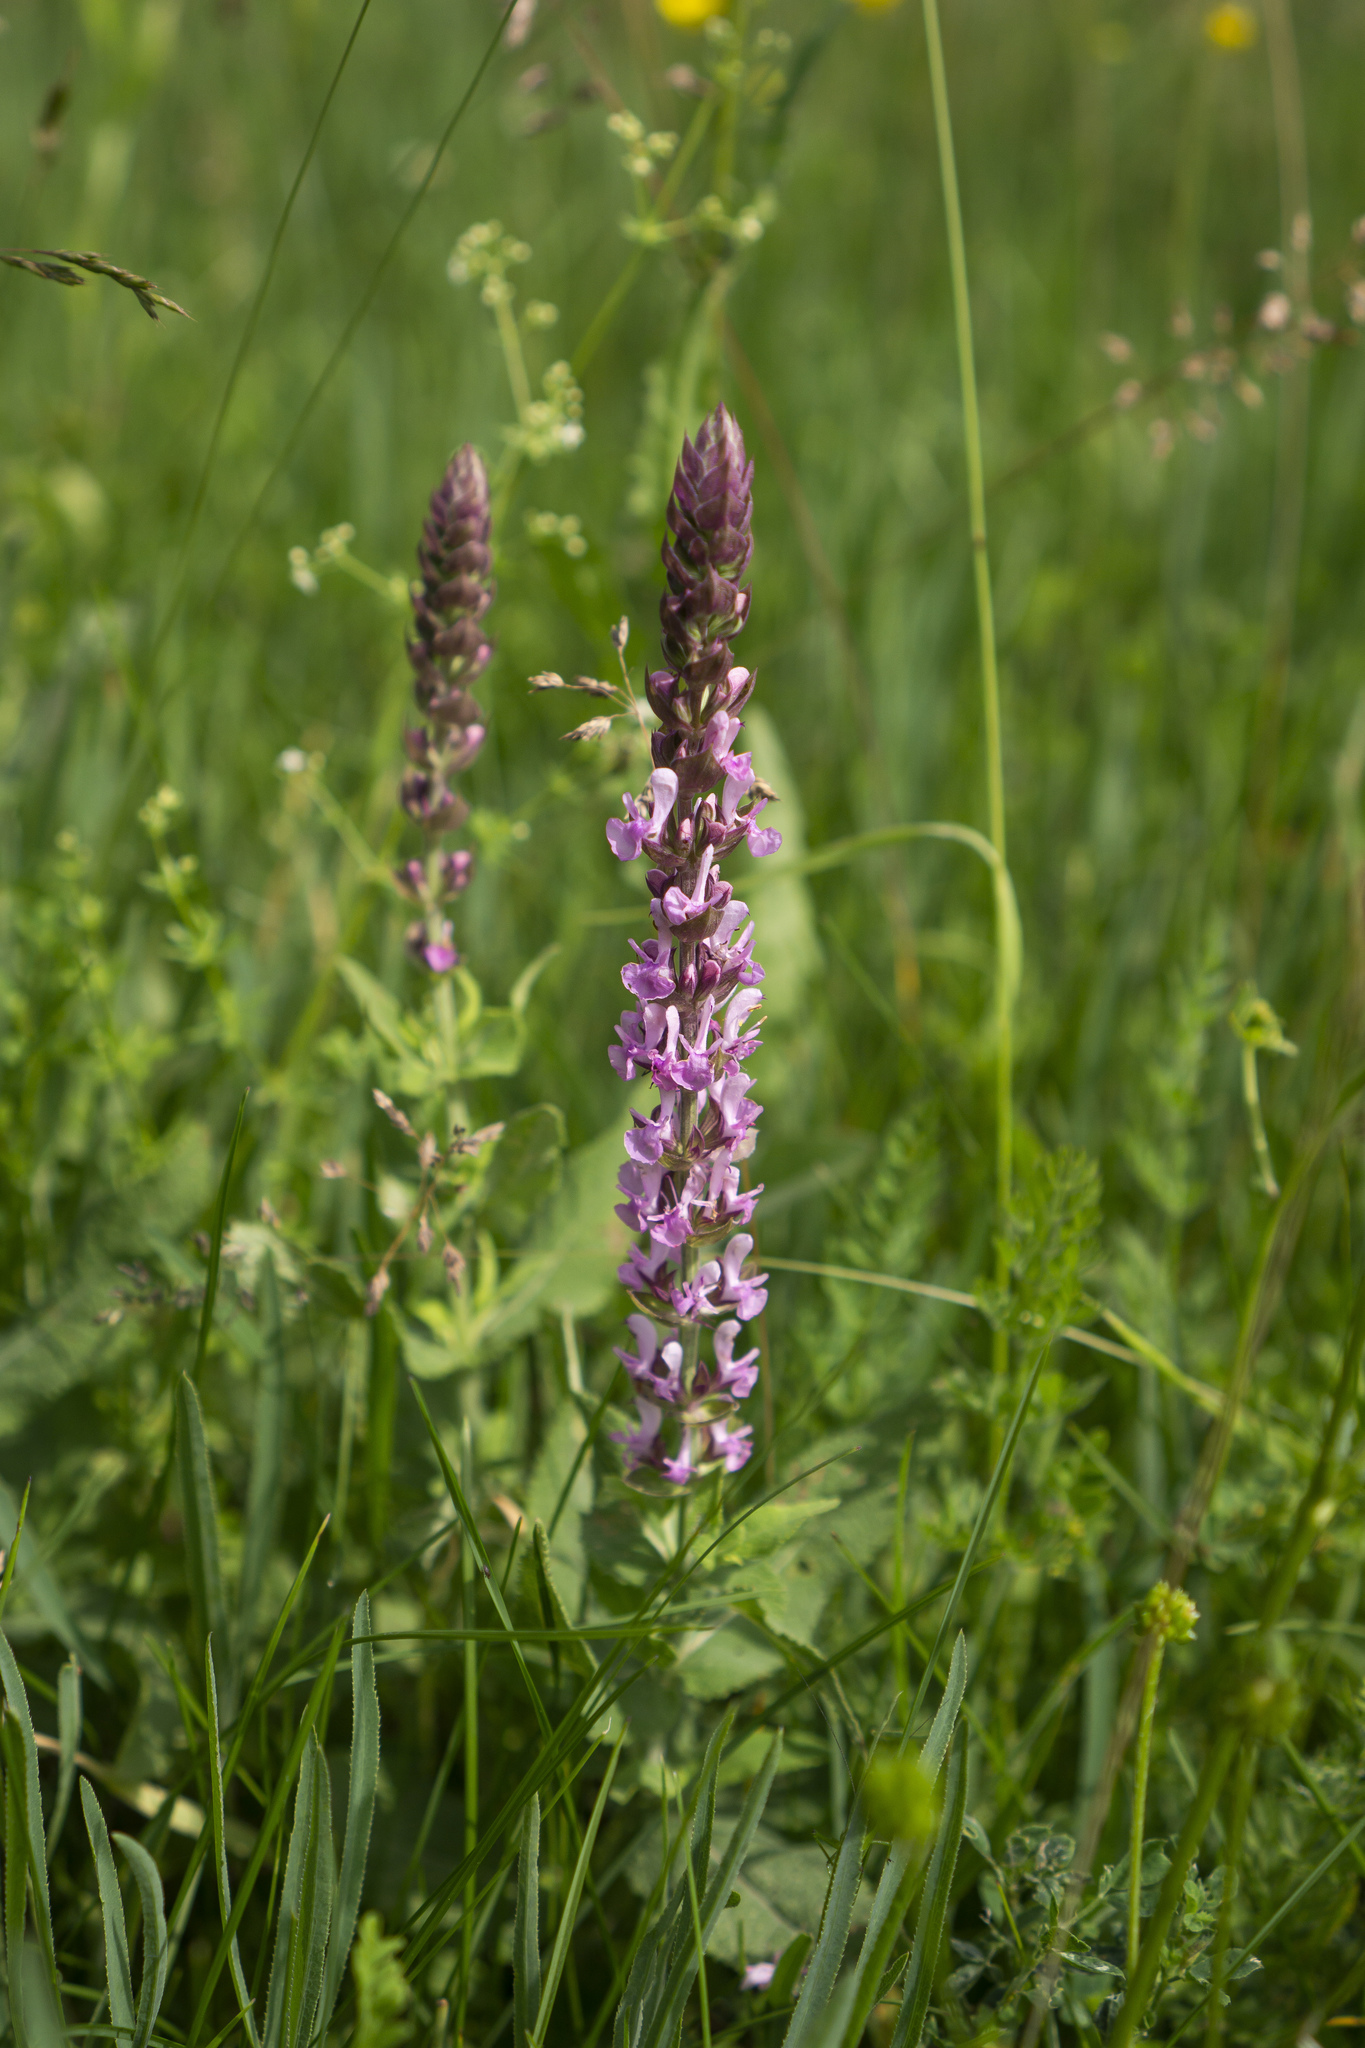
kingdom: Plantae
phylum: Tracheophyta
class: Magnoliopsida
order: Lamiales
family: Lamiaceae
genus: Salvia
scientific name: Salvia nemorosa
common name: Balkan clary
